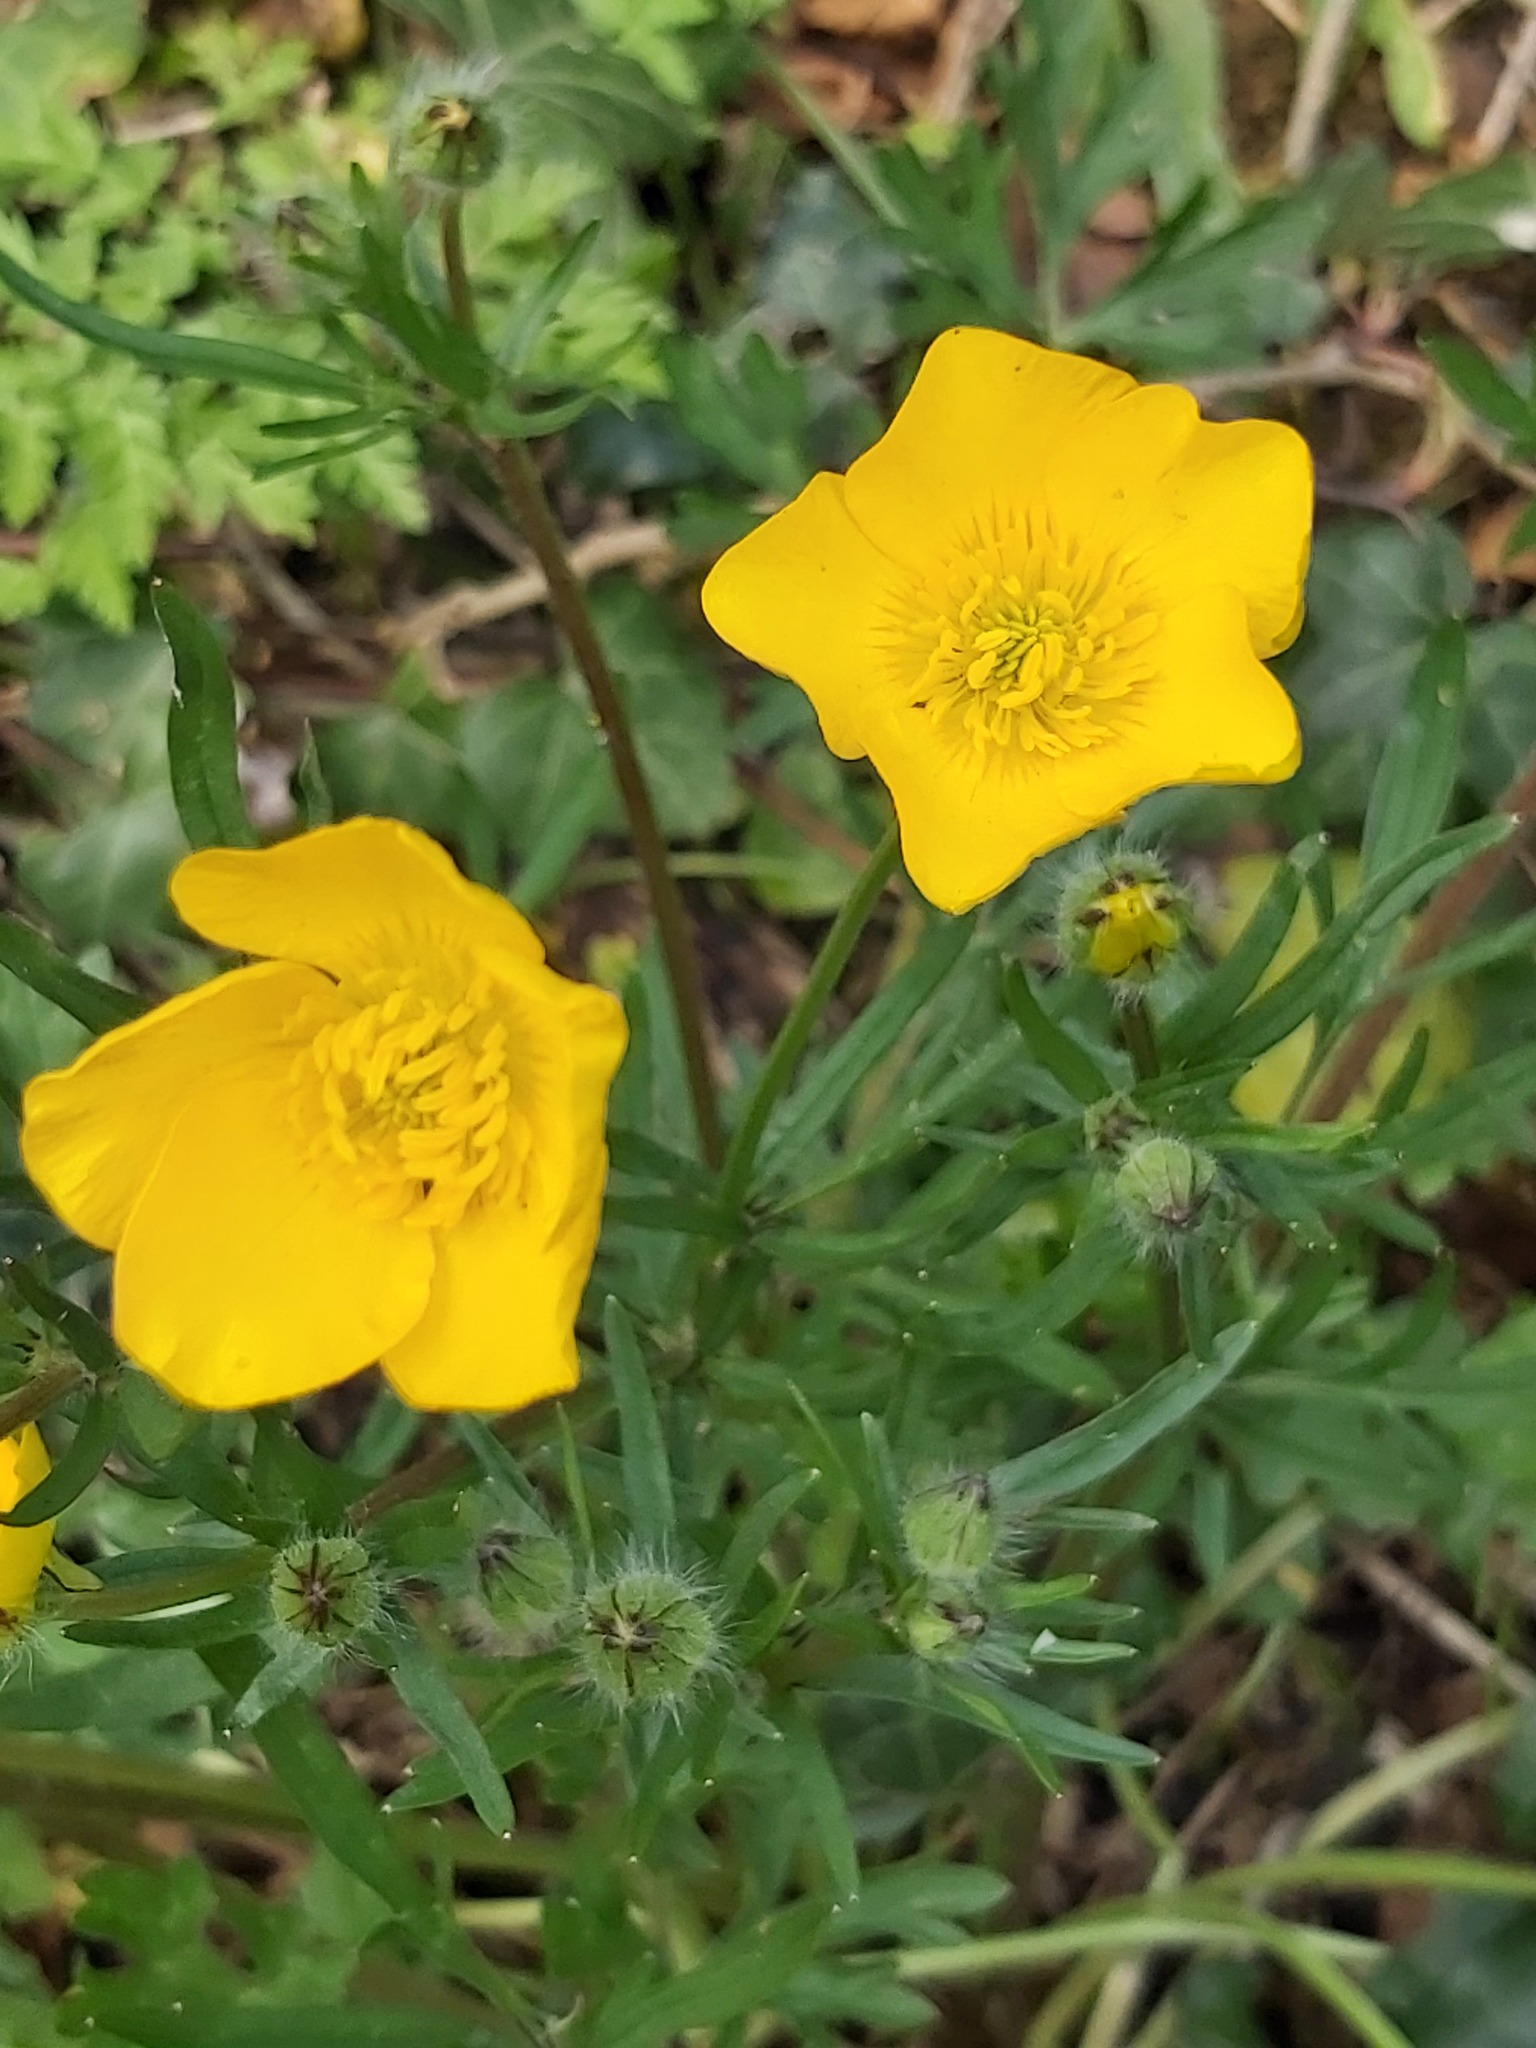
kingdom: Plantae
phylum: Tracheophyta
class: Magnoliopsida
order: Ranunculales
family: Ranunculaceae
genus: Ranunculus
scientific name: Ranunculus acris
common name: Meadow buttercup
